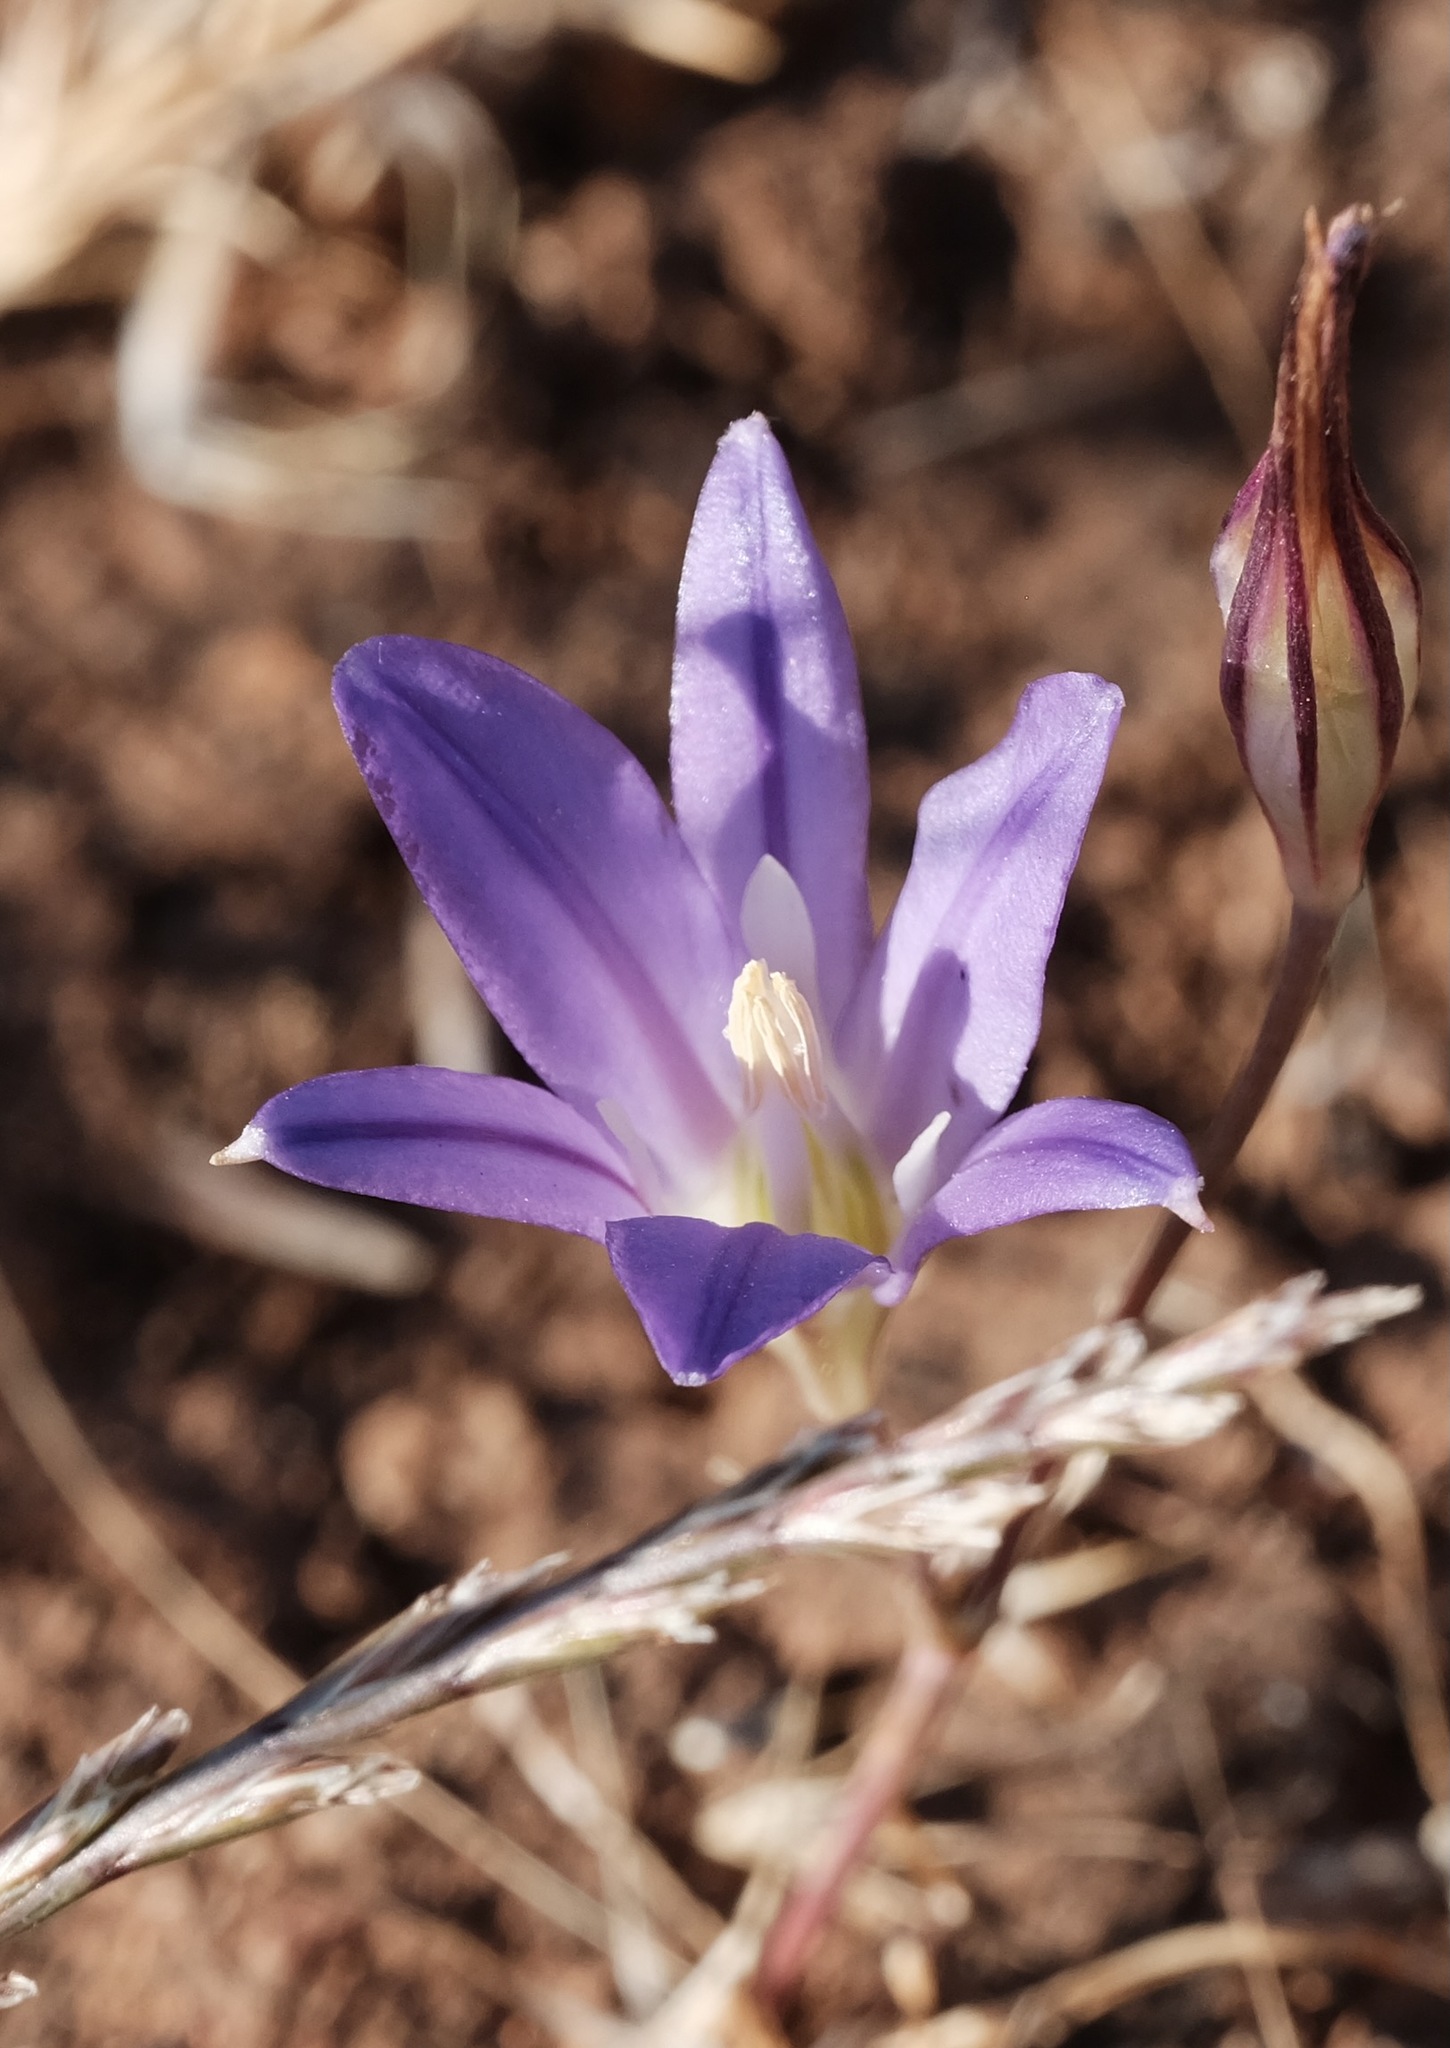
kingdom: Plantae
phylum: Tracheophyta
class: Liliopsida
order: Asparagales
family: Asparagaceae
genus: Brodiaea
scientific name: Brodiaea elegans
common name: Elegant cluster-lily
